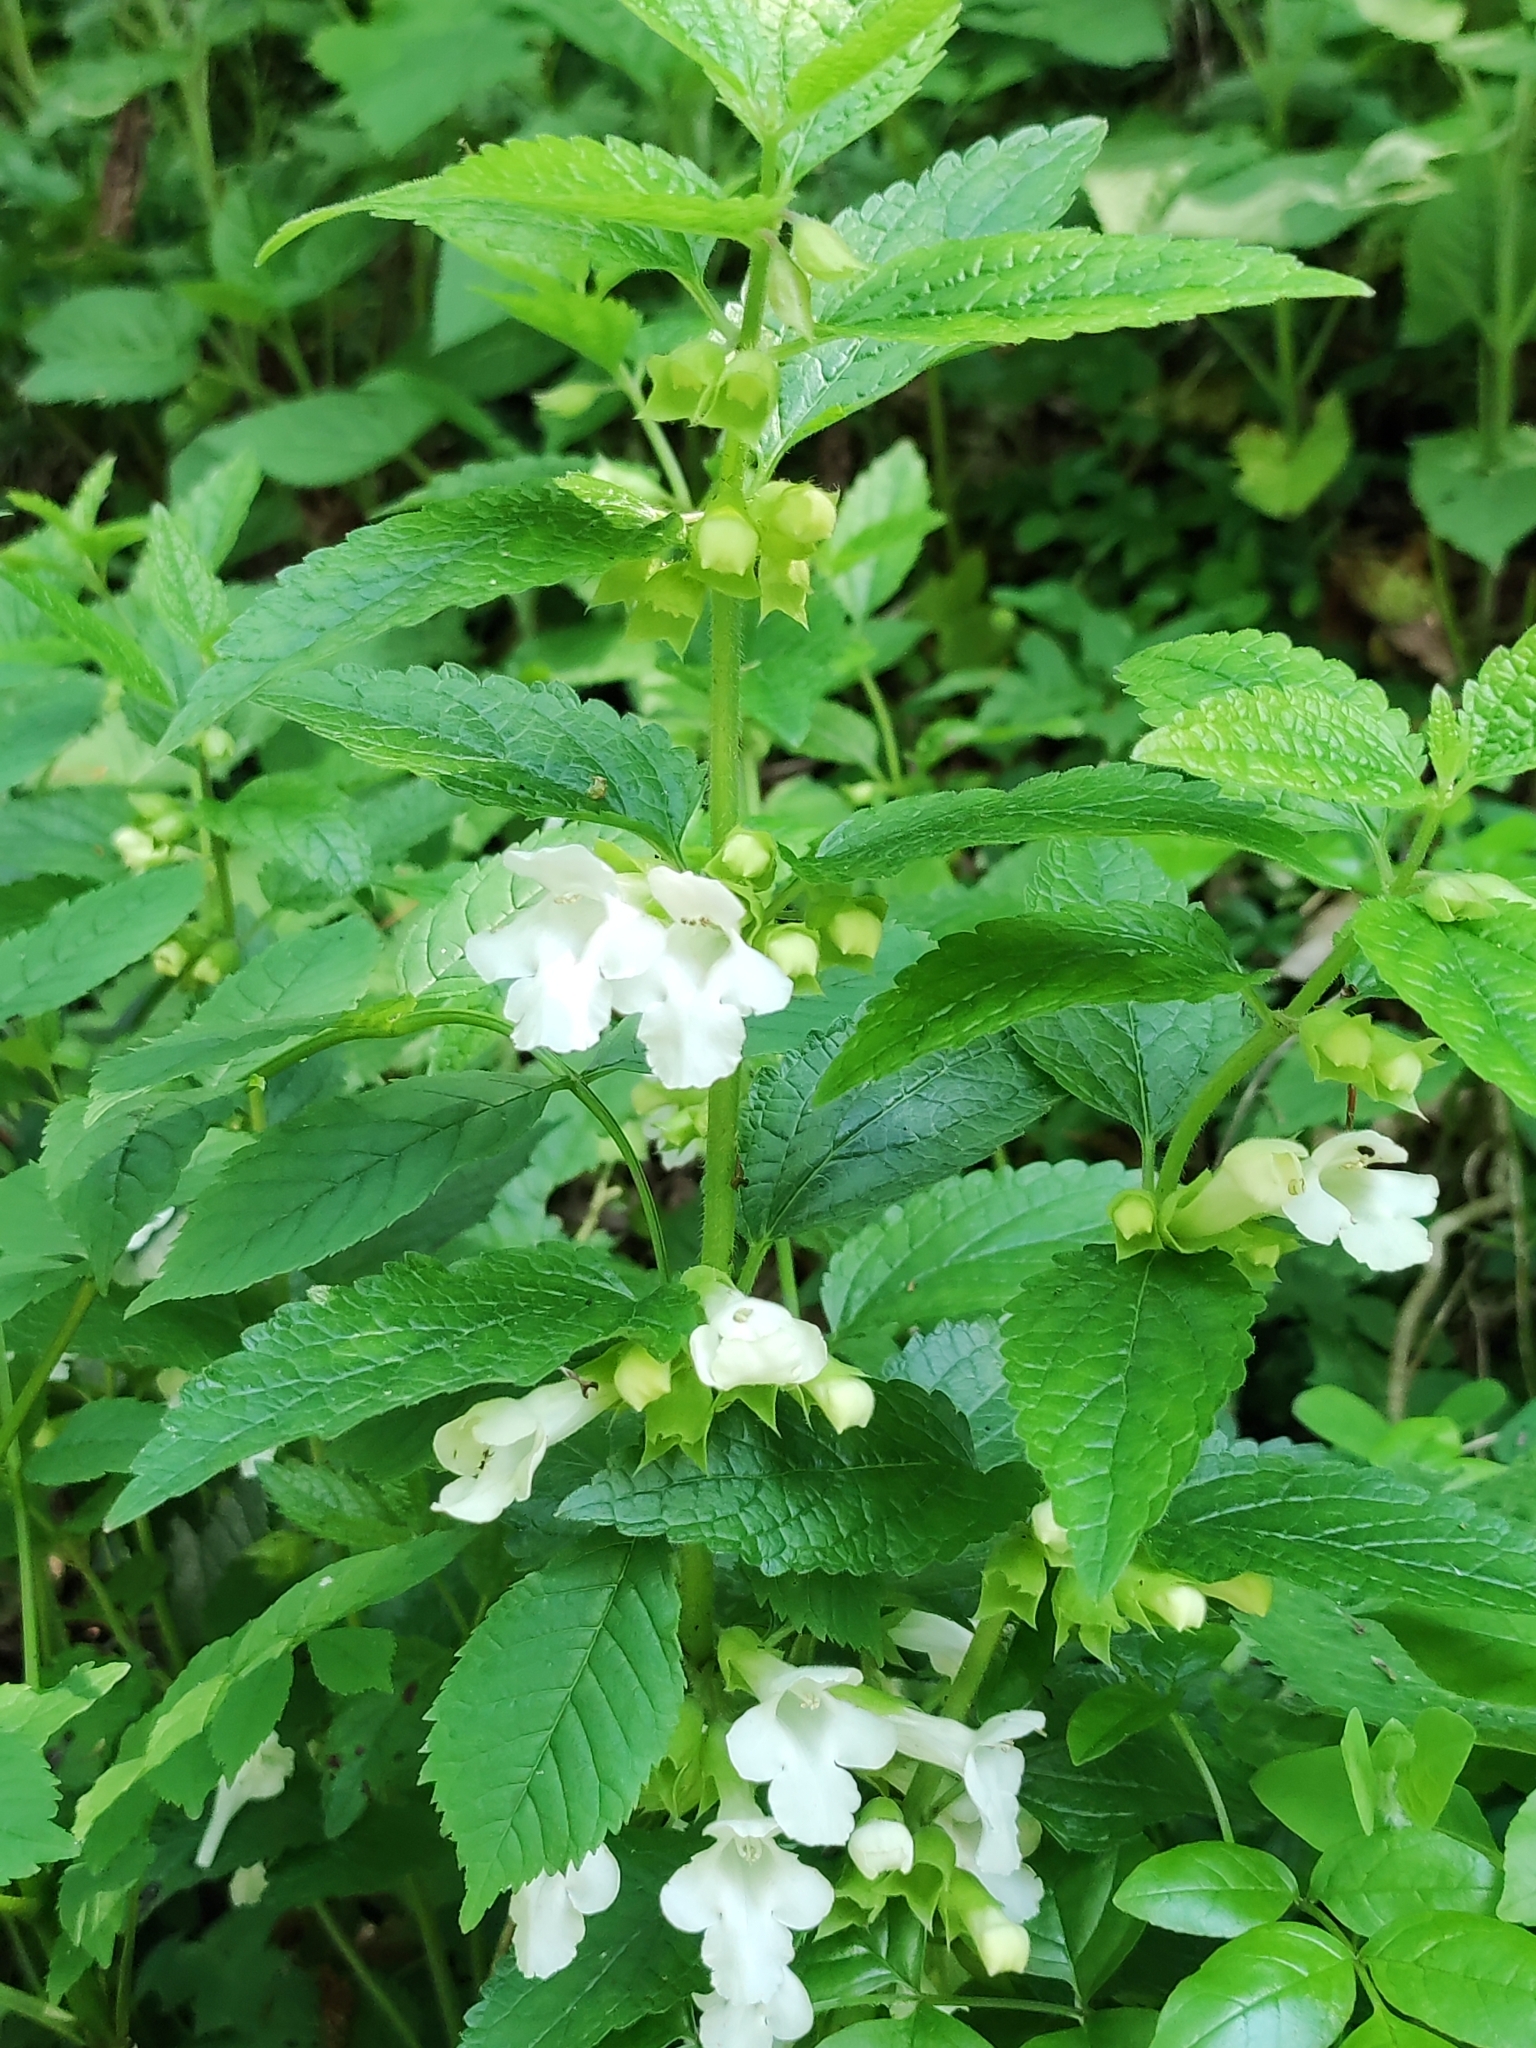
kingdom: Plantae
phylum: Tracheophyta
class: Magnoliopsida
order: Lamiales
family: Lamiaceae
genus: Melittis
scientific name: Melittis melissophyllum
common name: Bastard balm
